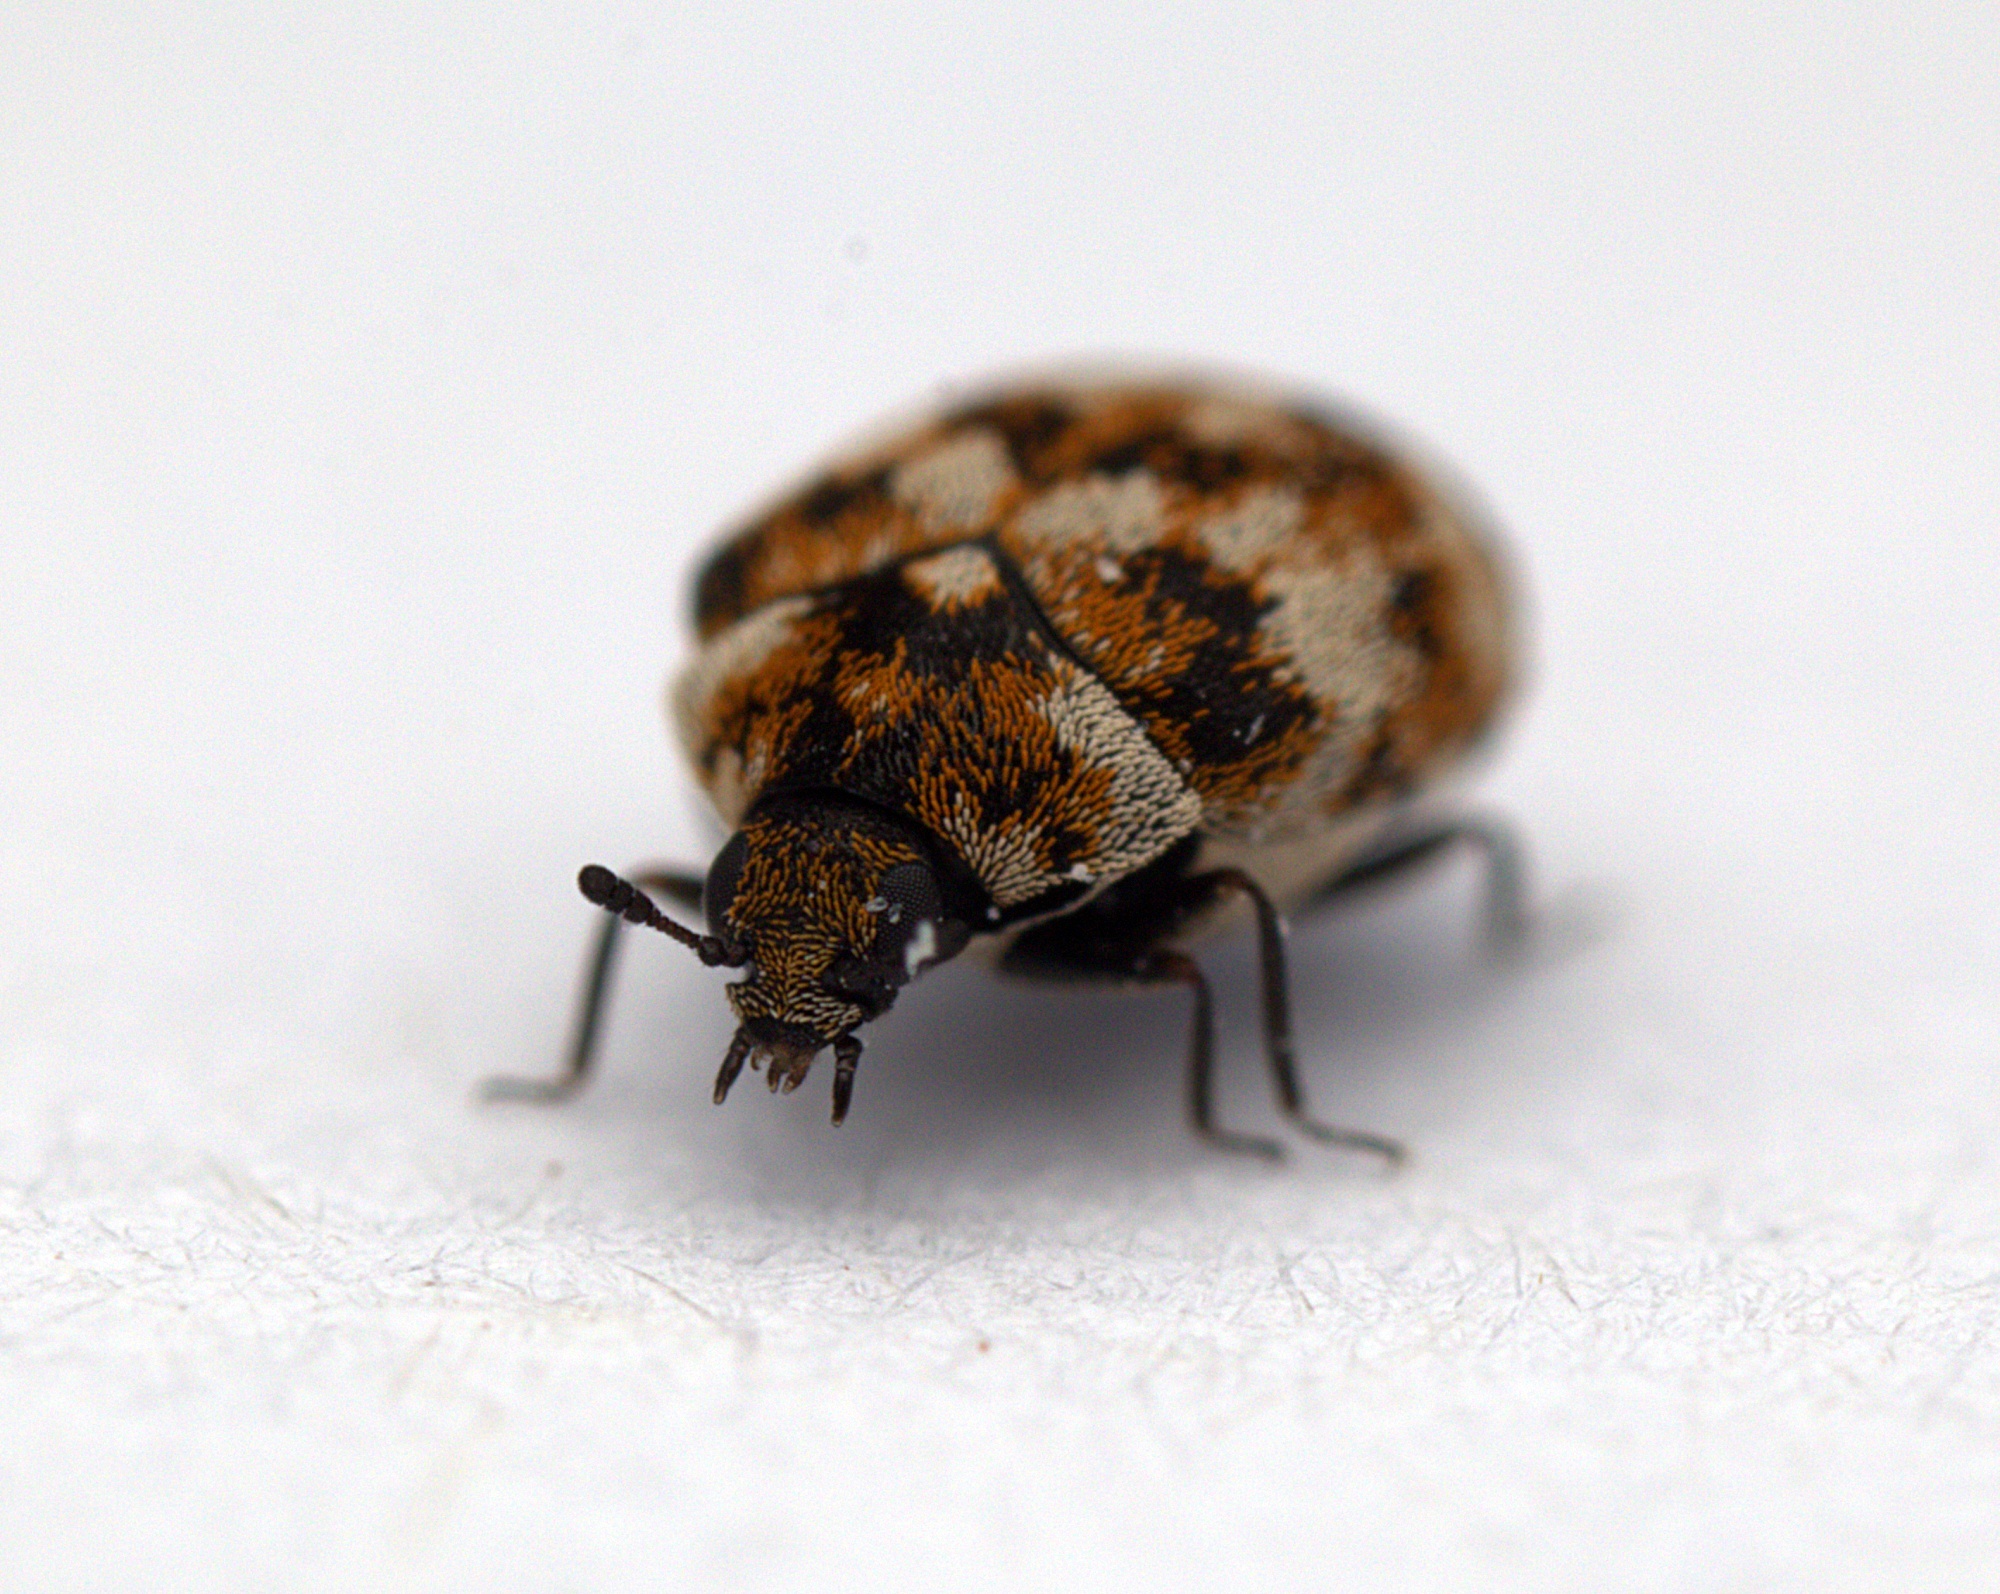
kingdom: Animalia
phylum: Arthropoda
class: Insecta
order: Coleoptera
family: Dermestidae
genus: Anthrenus
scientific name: Anthrenus verbasci
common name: Varied carpet beetle
